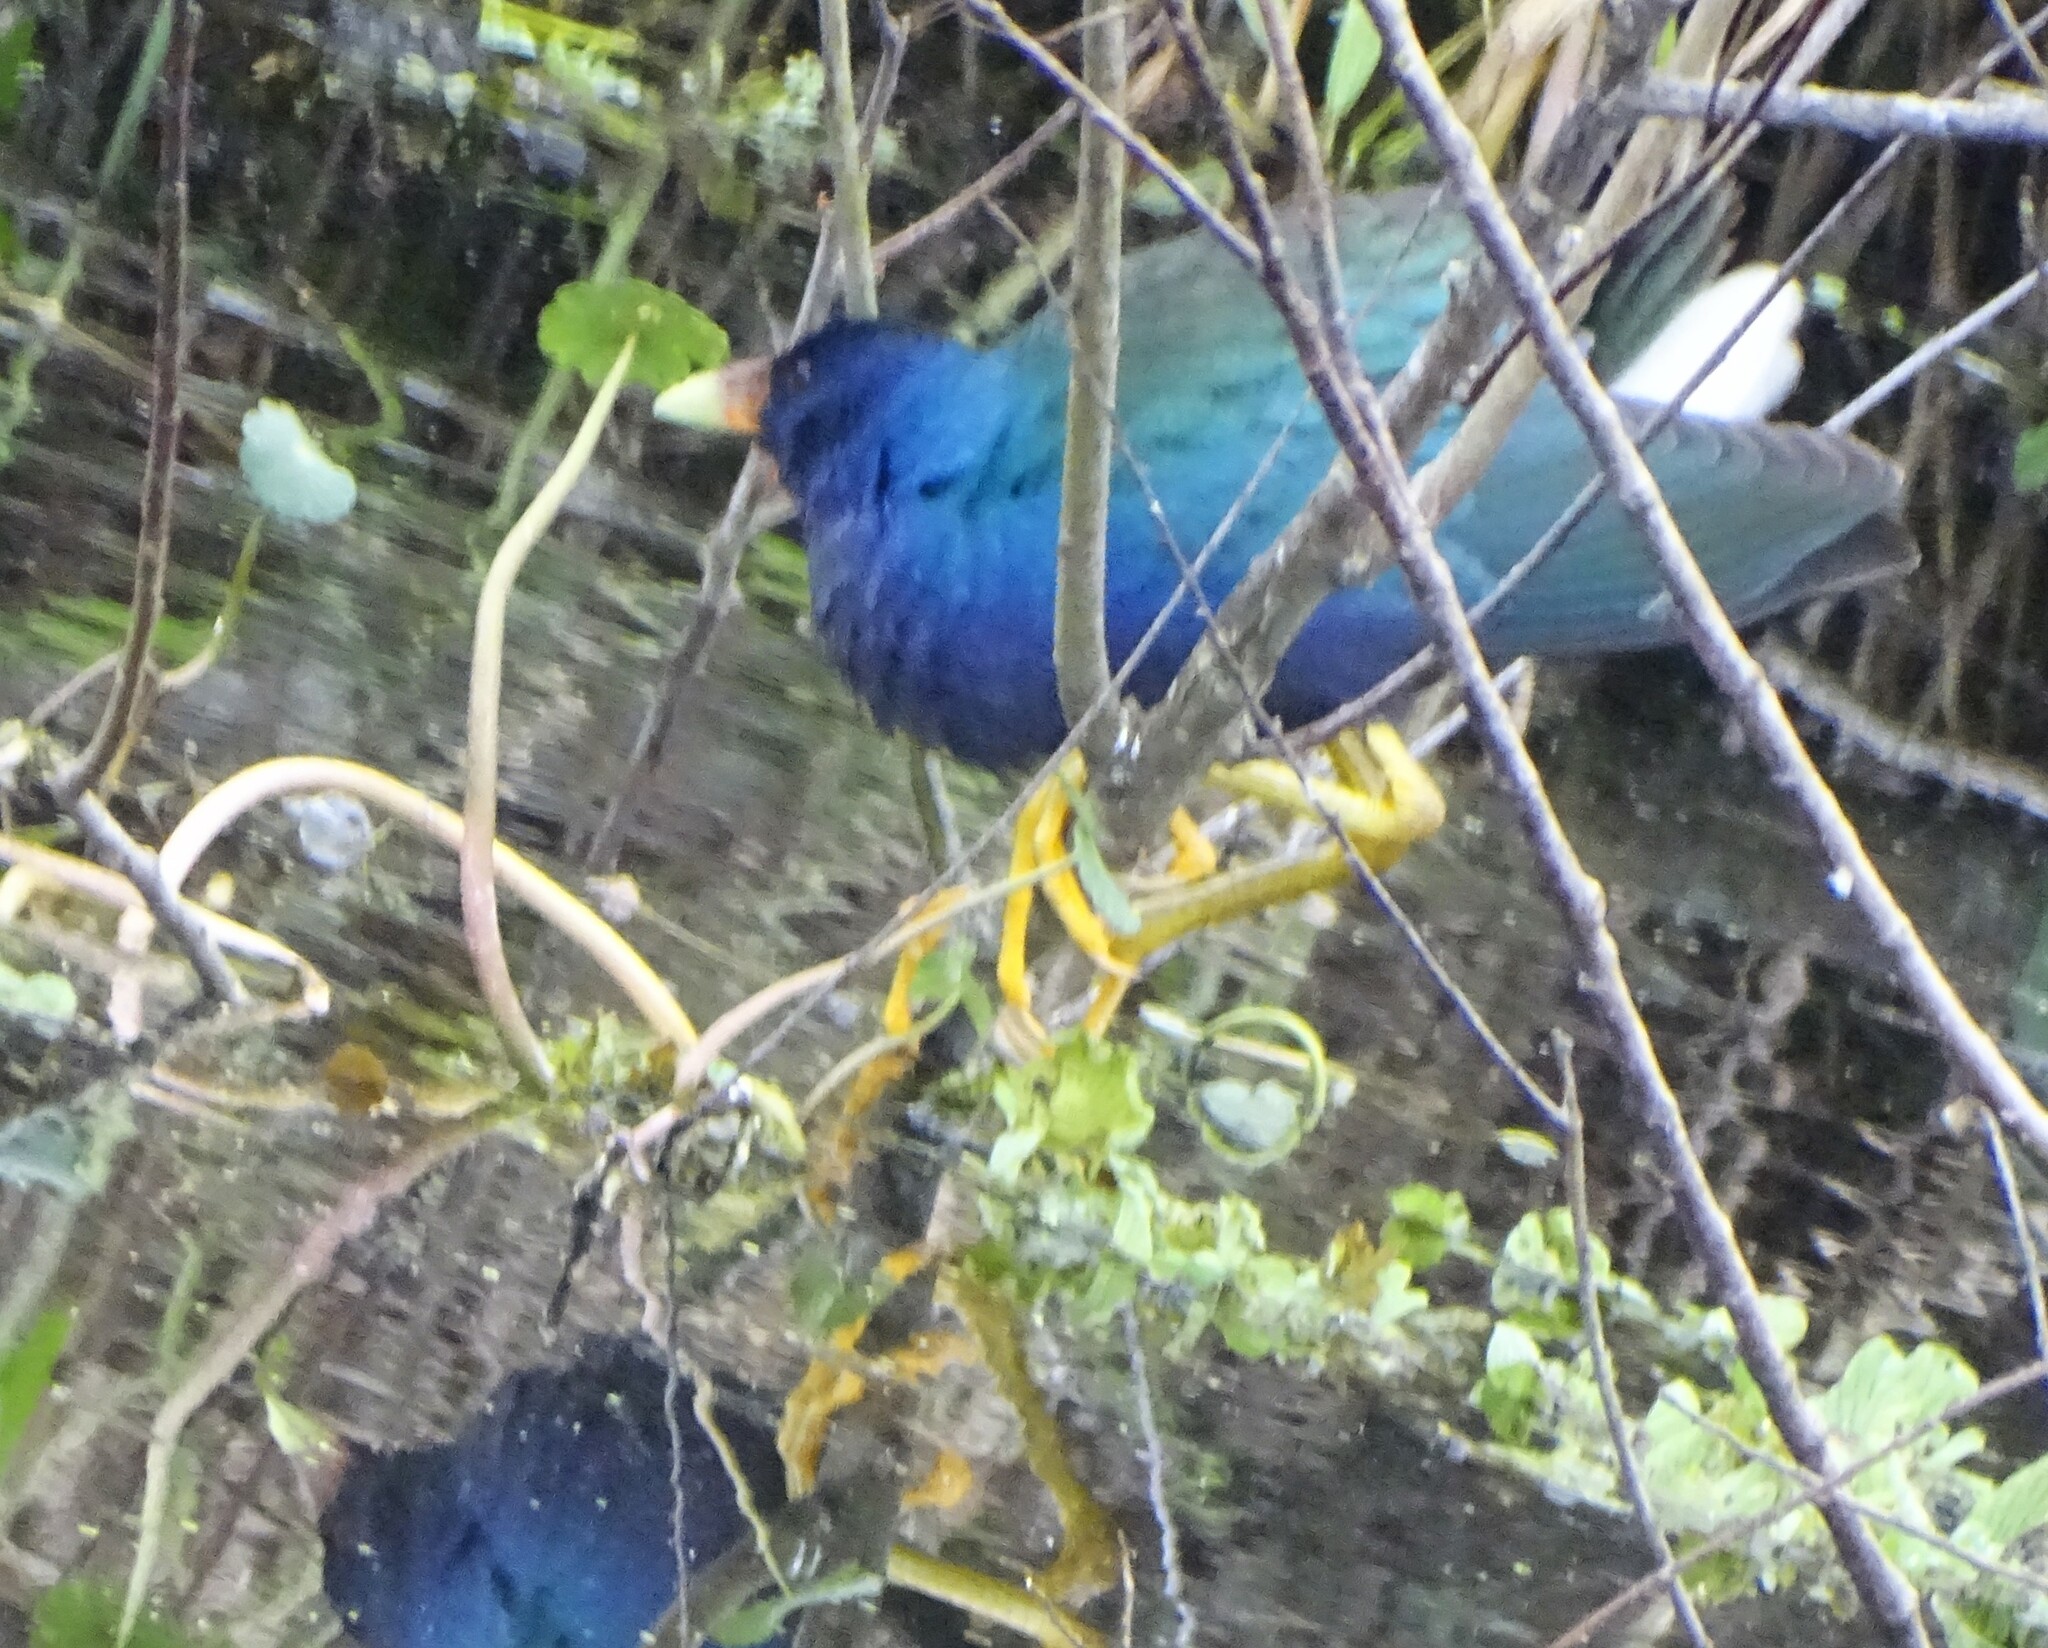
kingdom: Animalia
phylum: Chordata
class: Aves
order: Gruiformes
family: Rallidae
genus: Porphyrio
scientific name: Porphyrio martinica
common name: Purple gallinule
